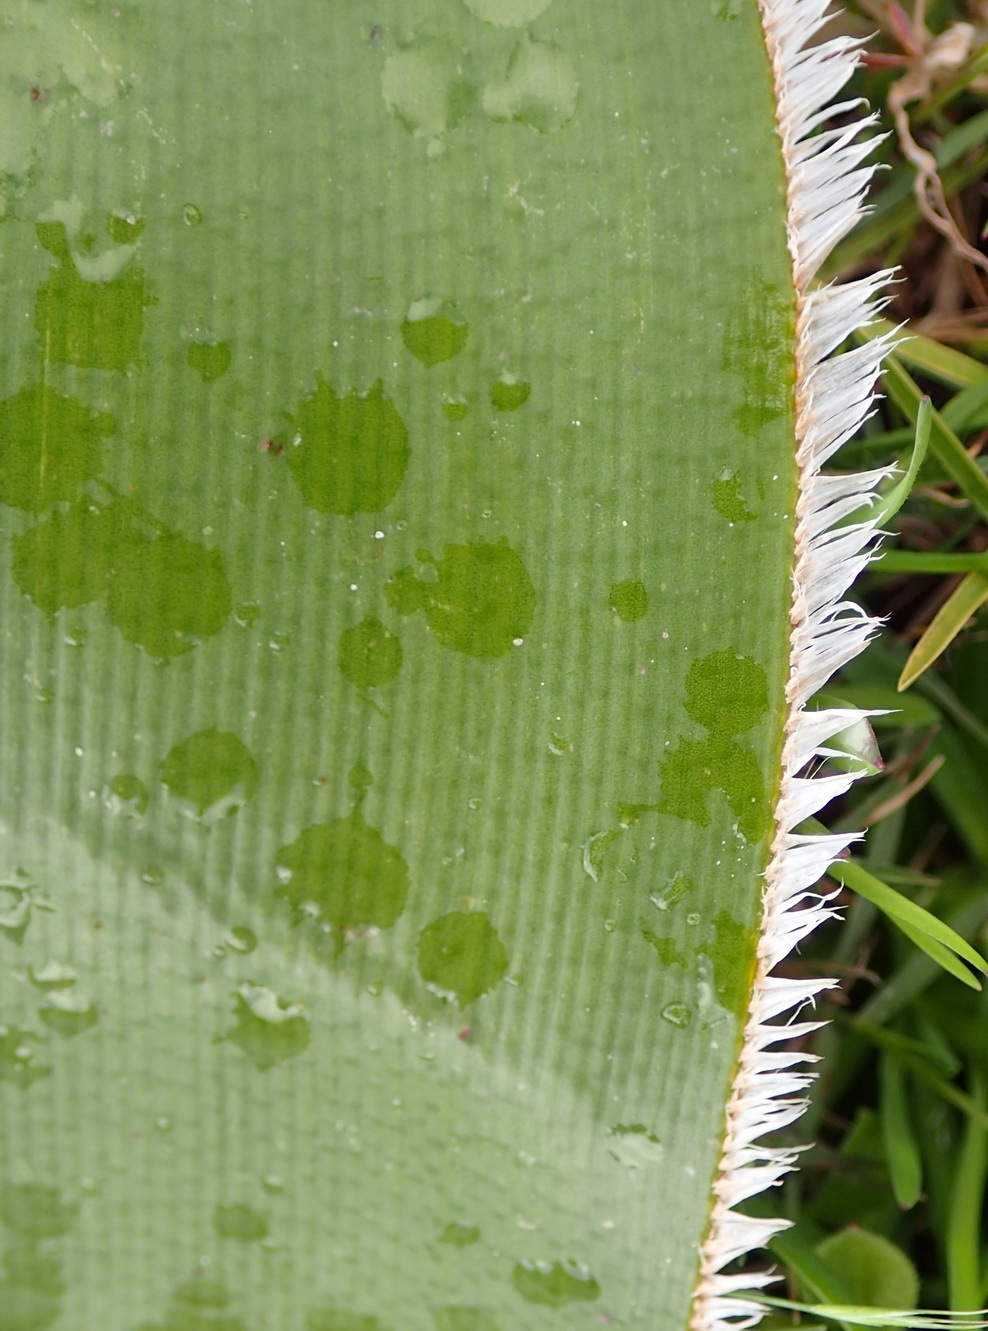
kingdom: Plantae
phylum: Tracheophyta
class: Liliopsida
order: Asparagales
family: Amaryllidaceae
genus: Crossyne
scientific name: Crossyne flava
